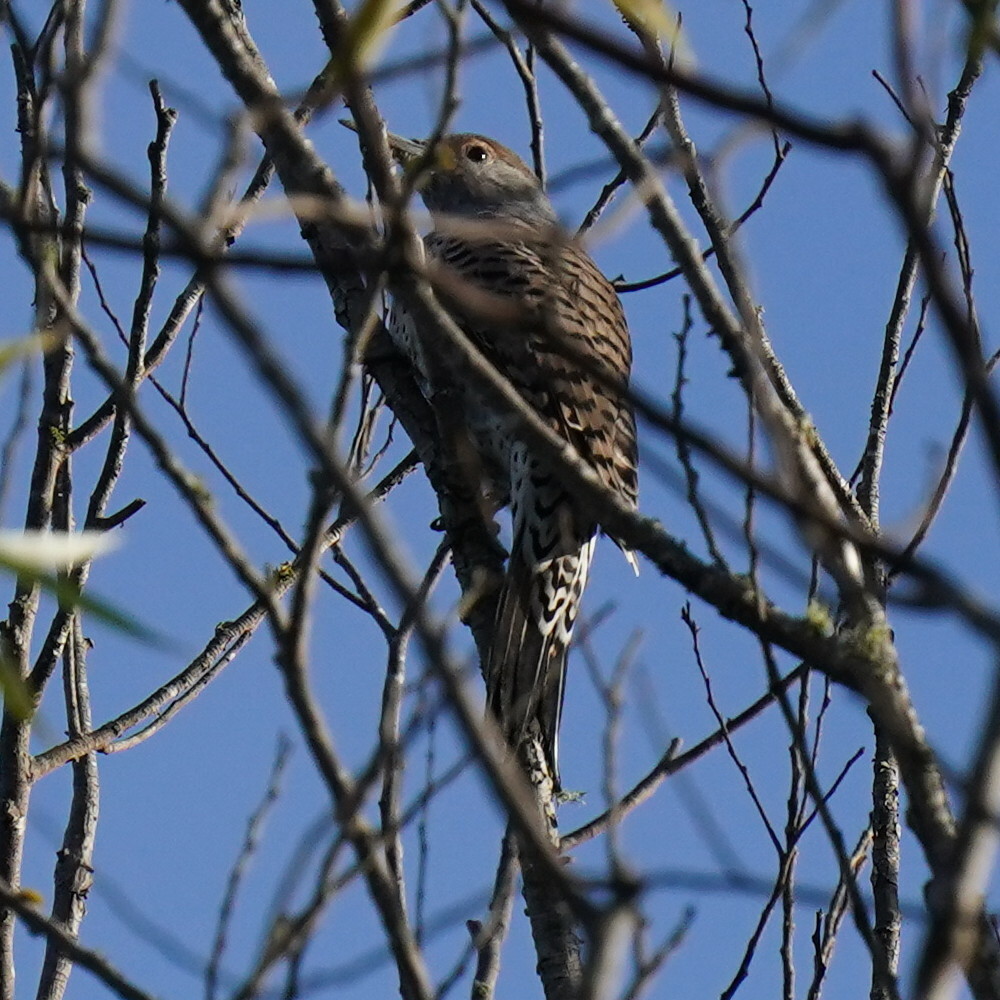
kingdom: Animalia
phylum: Chordata
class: Aves
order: Piciformes
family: Picidae
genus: Colaptes
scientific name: Colaptes auratus
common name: Northern flicker
